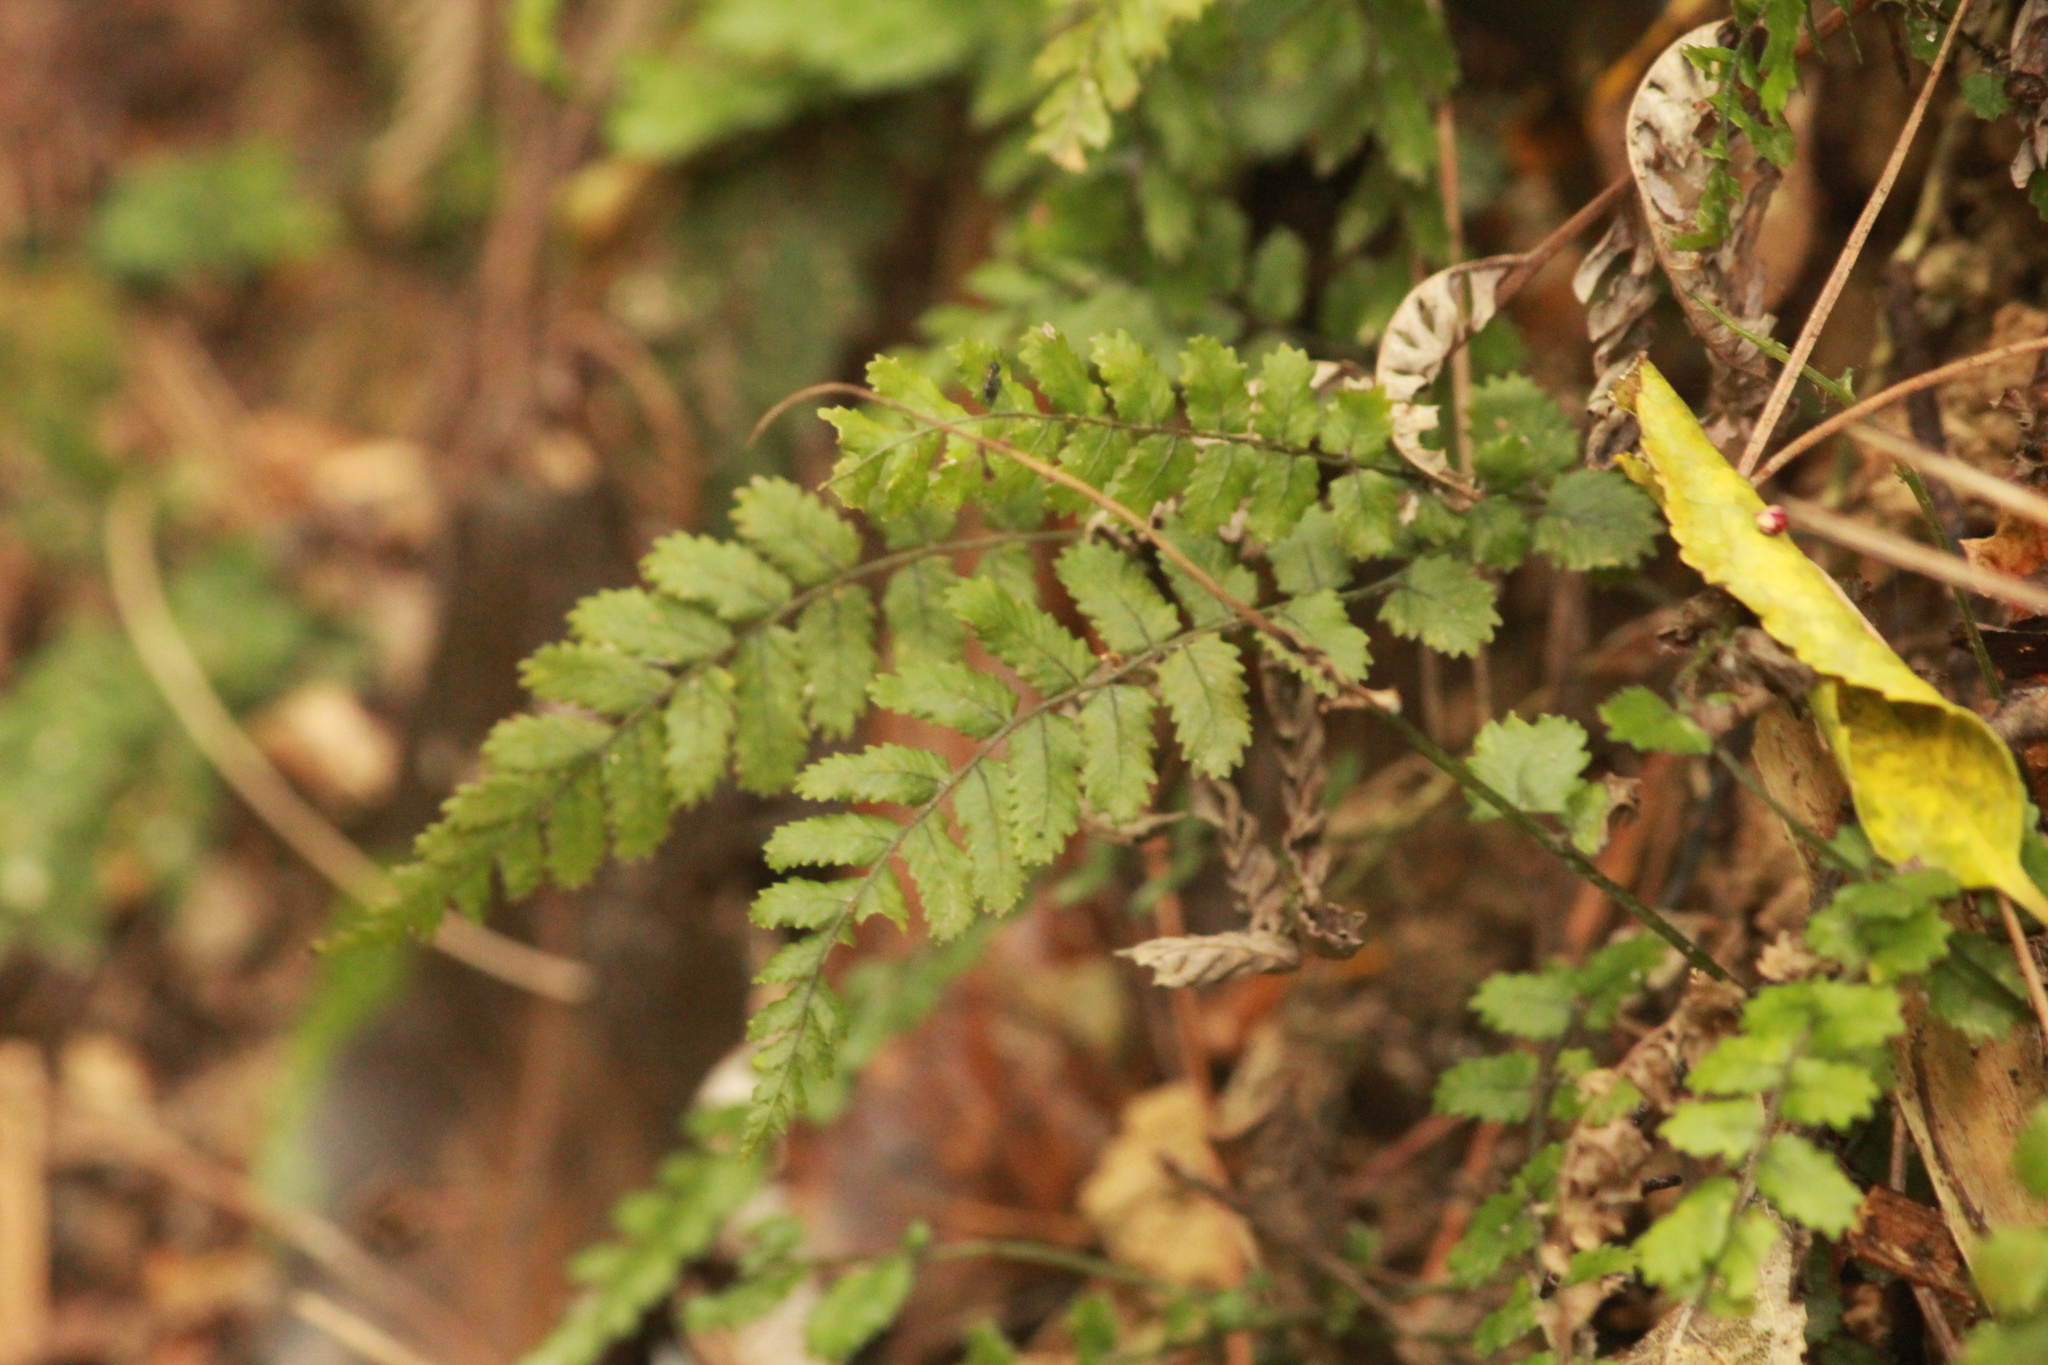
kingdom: Plantae
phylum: Tracheophyta
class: Polypodiopsida
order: Polypodiales
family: Blechnaceae
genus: Icarus
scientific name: Icarus filiformis
